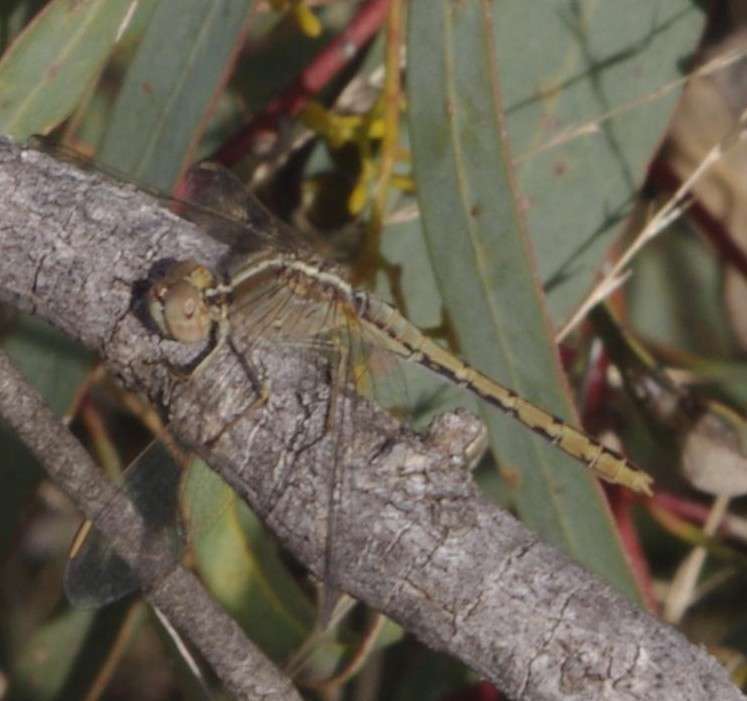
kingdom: Animalia
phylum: Arthropoda
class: Insecta
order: Odonata
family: Libellulidae
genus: Diplacodes
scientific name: Diplacodes bipunctata
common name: Red percher dragonfly
